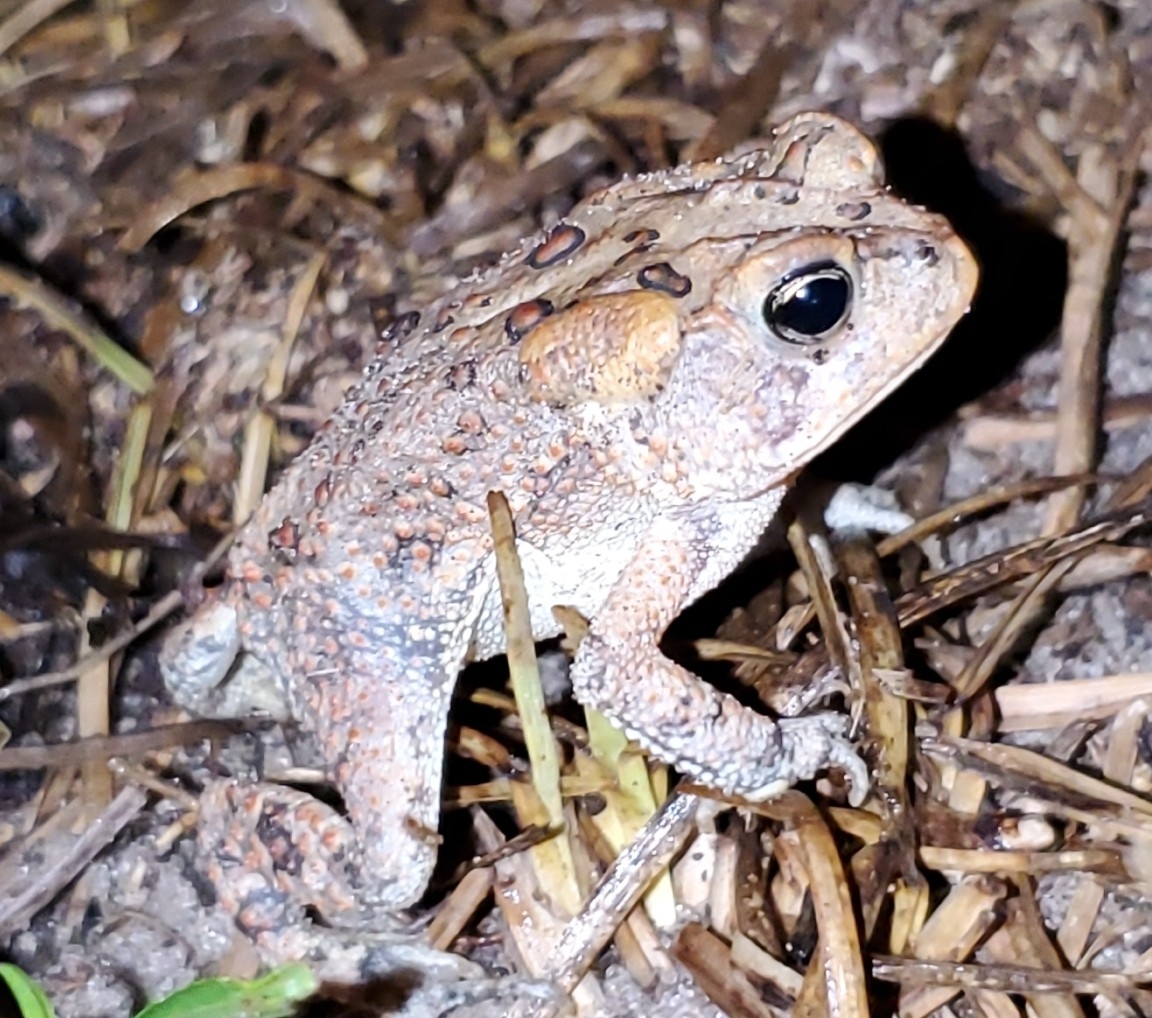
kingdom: Animalia
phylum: Chordata
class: Amphibia
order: Anura
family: Bufonidae
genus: Anaxyrus
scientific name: Anaxyrus terrestris
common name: Southern toad
